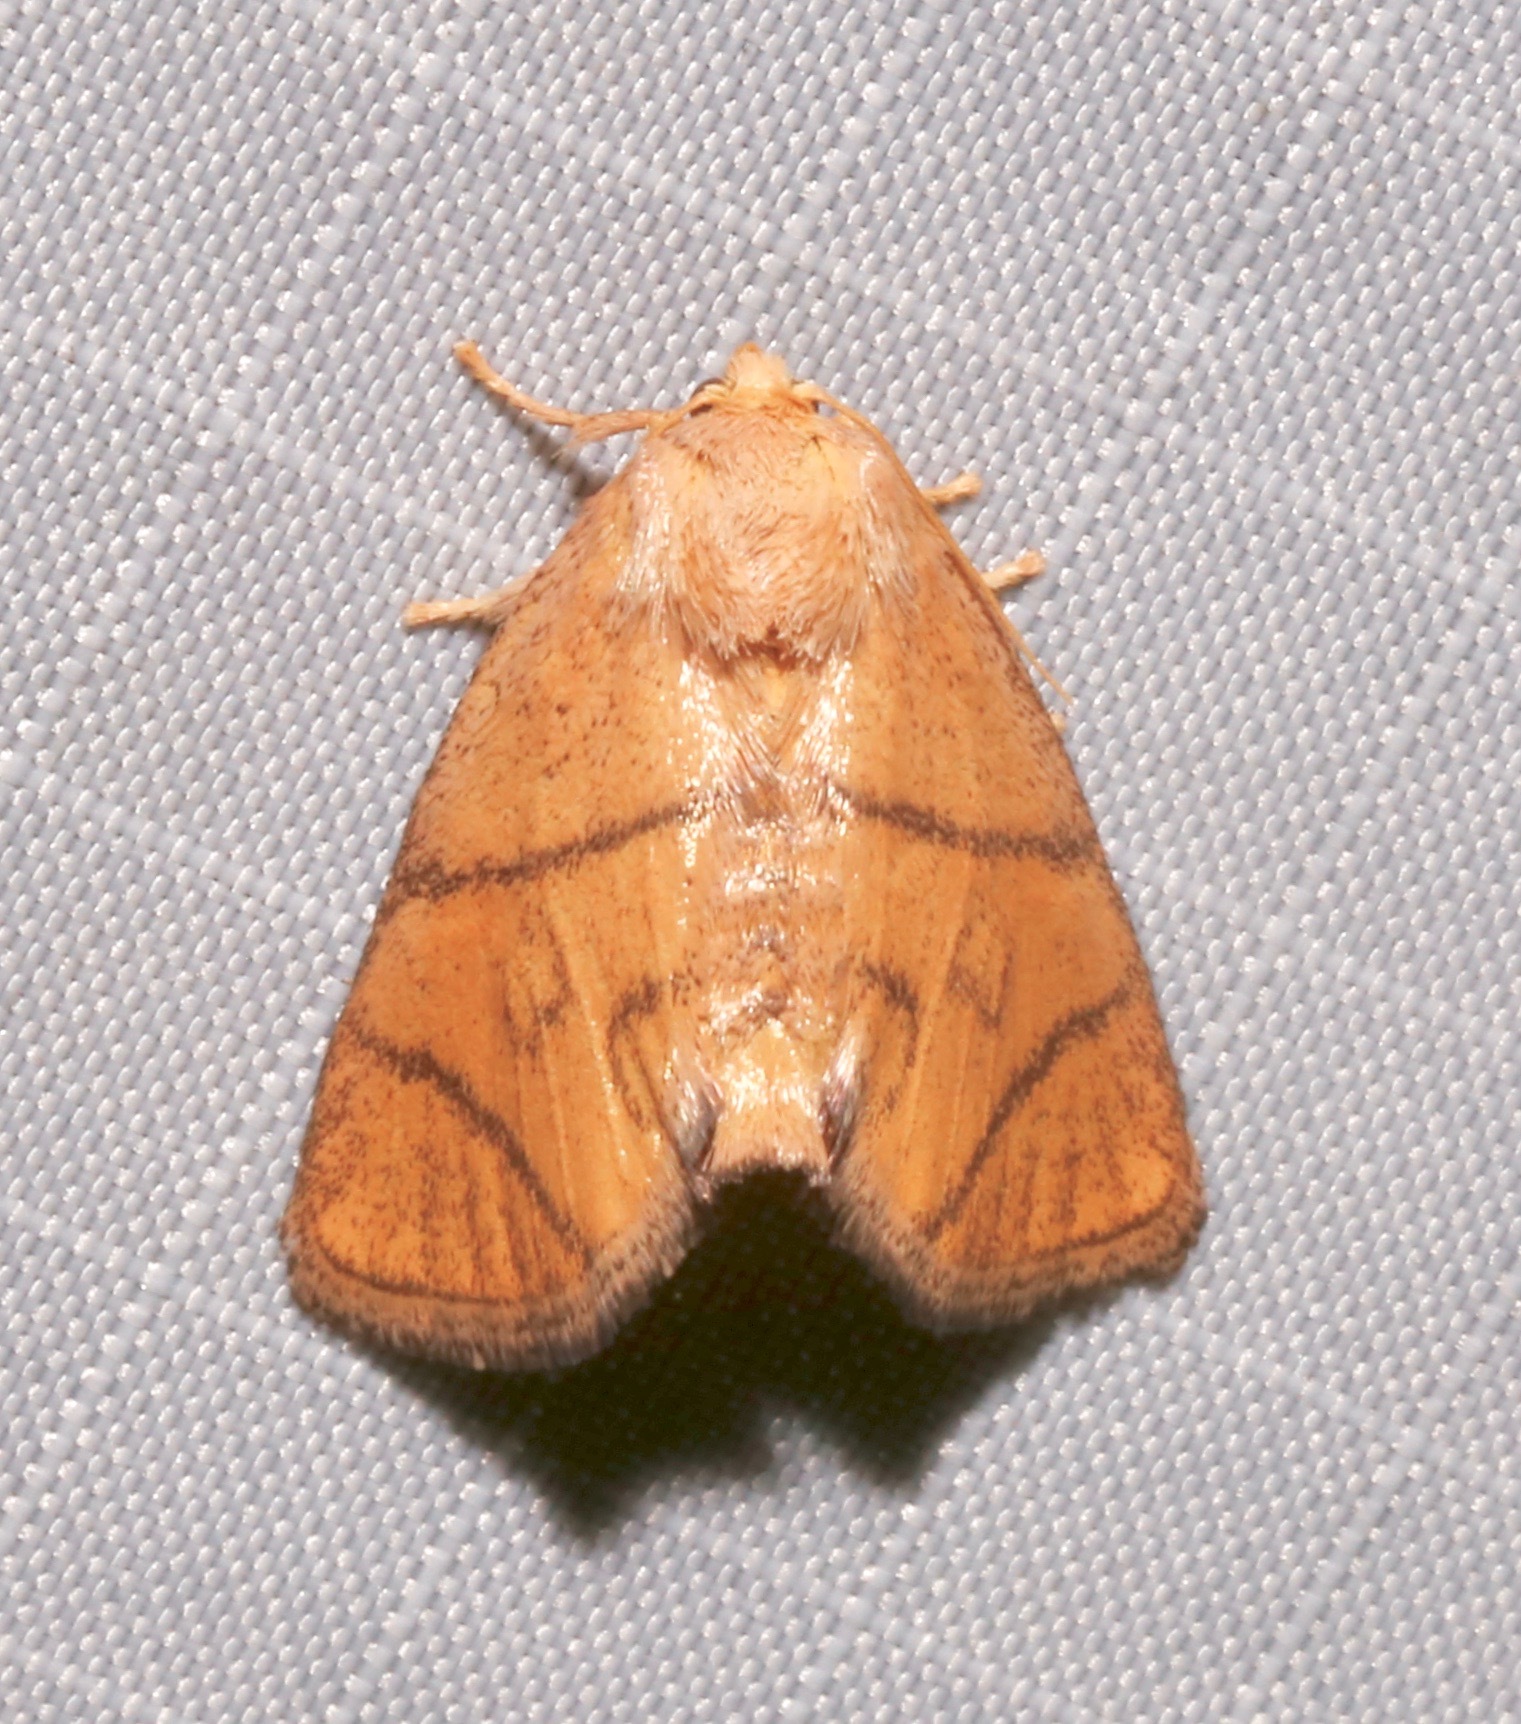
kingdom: Animalia
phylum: Arthropoda
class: Insecta
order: Lepidoptera
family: Limacodidae
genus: Apoda
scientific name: Apoda y-inversa
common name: Yellow-collared slug moth
